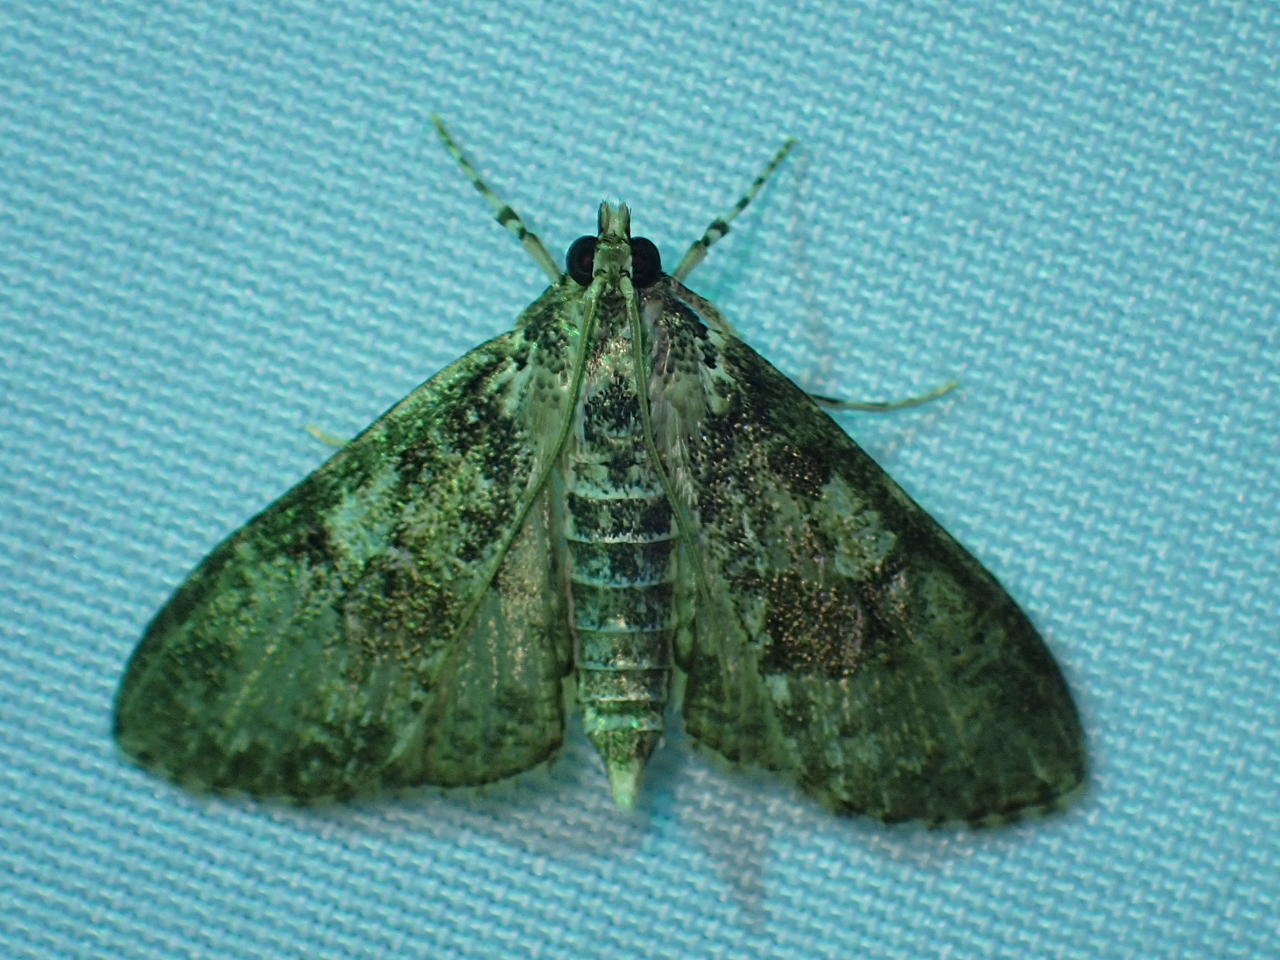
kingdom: Animalia
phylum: Arthropoda
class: Insecta
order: Lepidoptera
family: Crambidae
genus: Palpita
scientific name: Palpita magniferalis
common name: Splendid palpita moth
